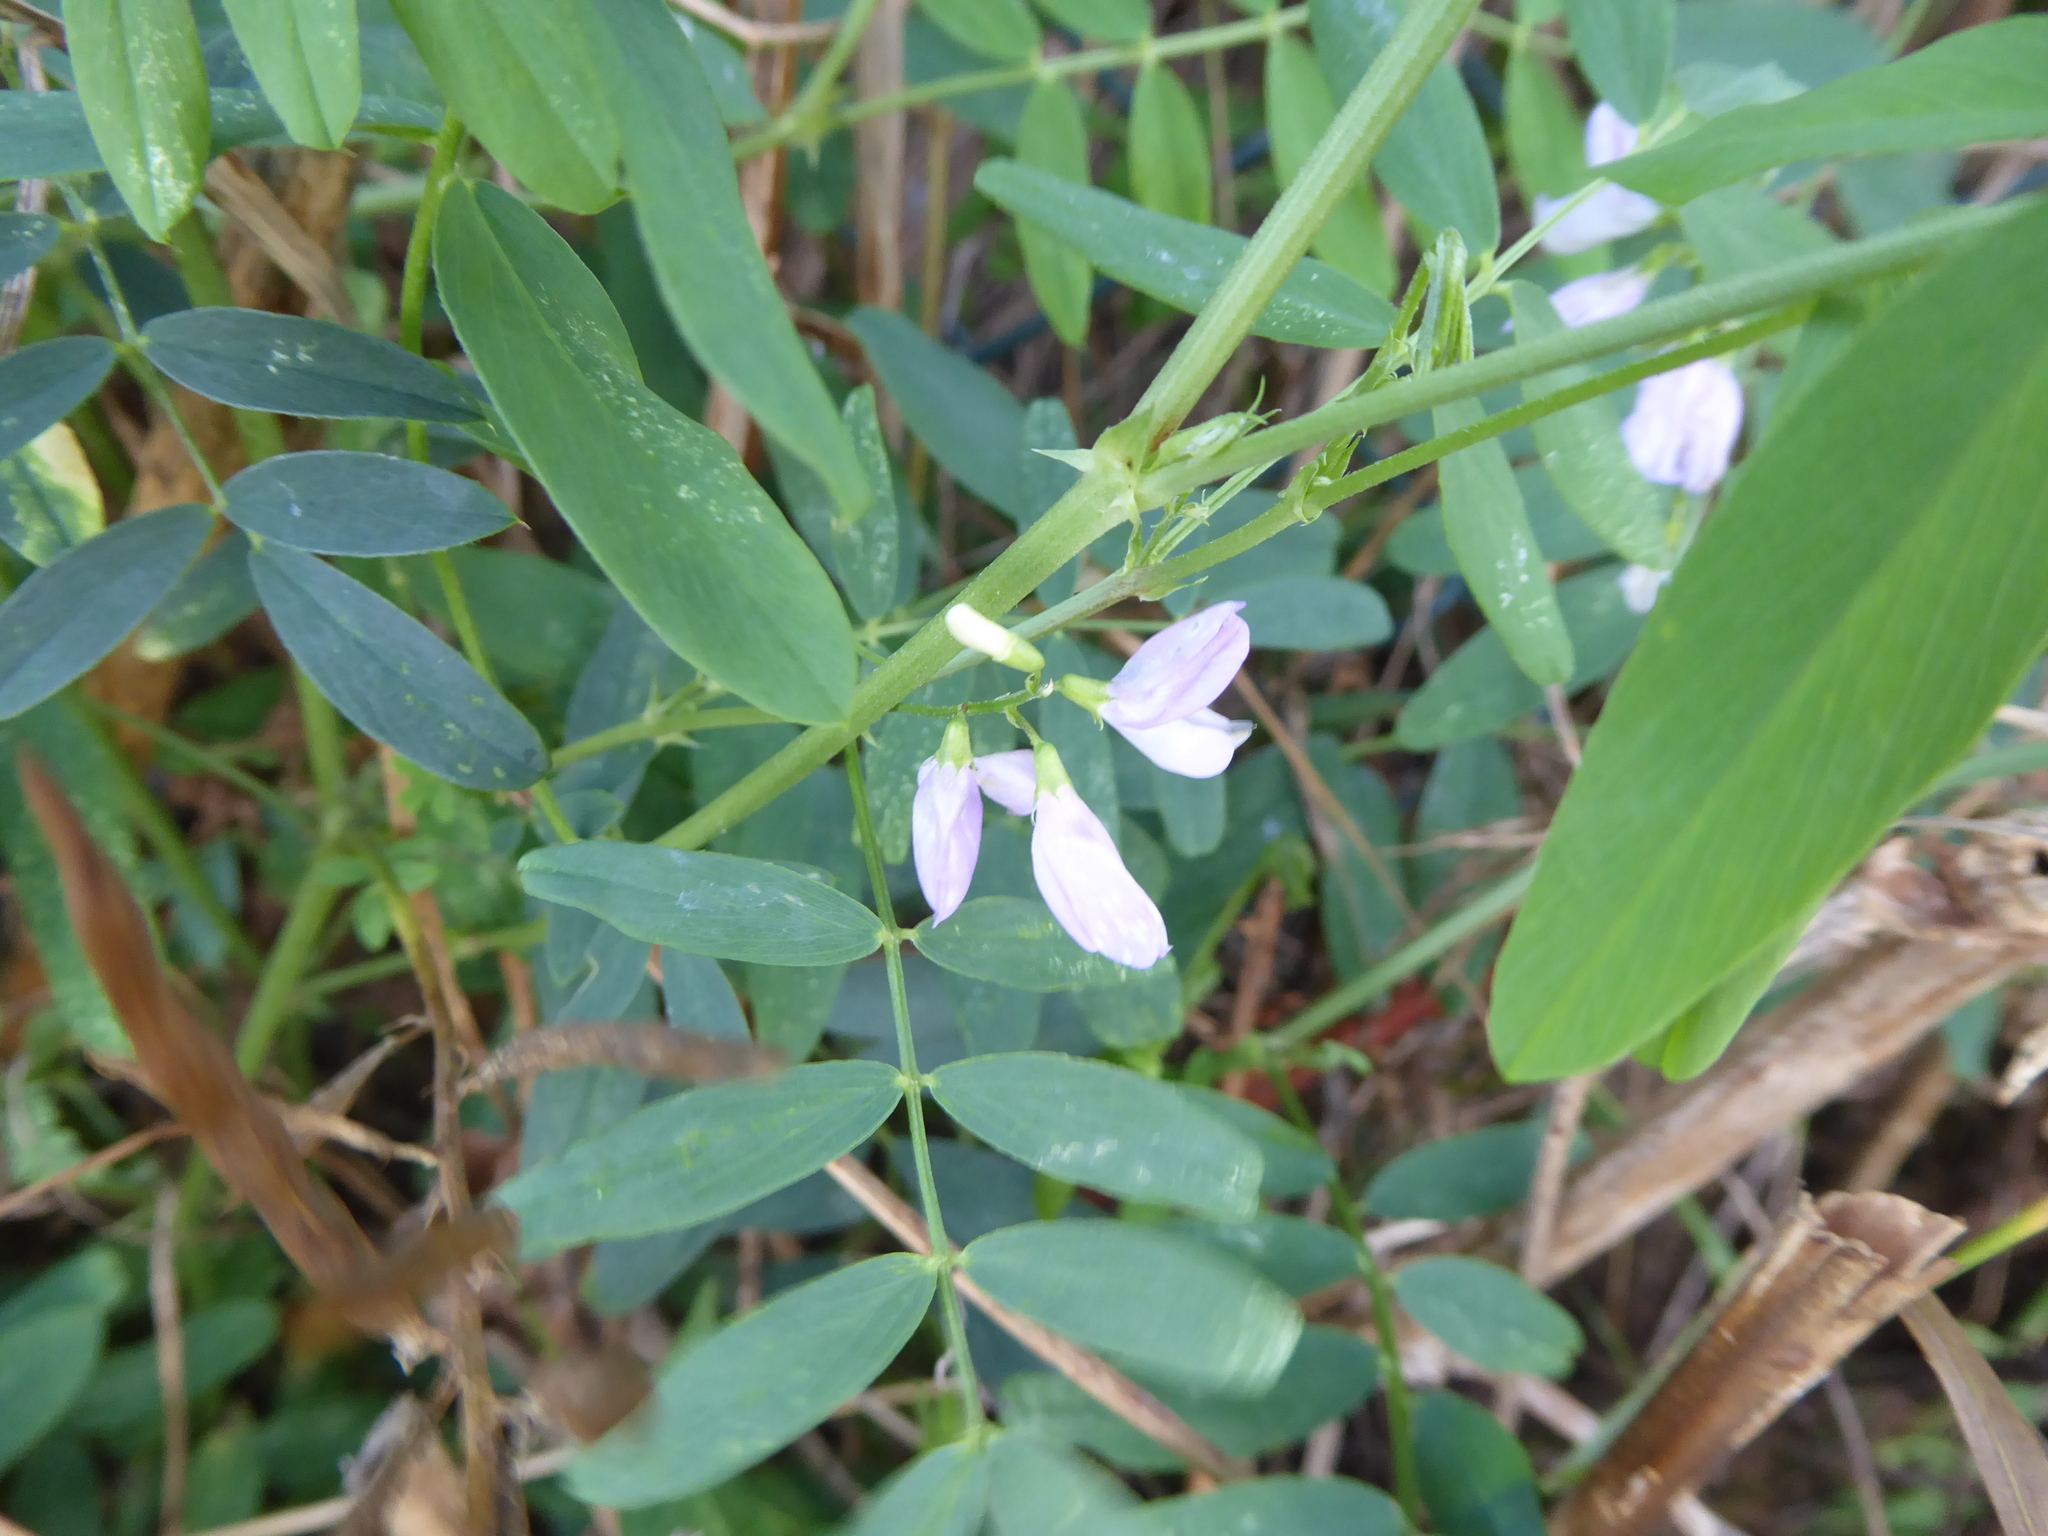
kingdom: Plantae
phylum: Tracheophyta
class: Magnoliopsida
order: Fabales
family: Fabaceae
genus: Galega
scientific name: Galega officinalis
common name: Goat's-rue
